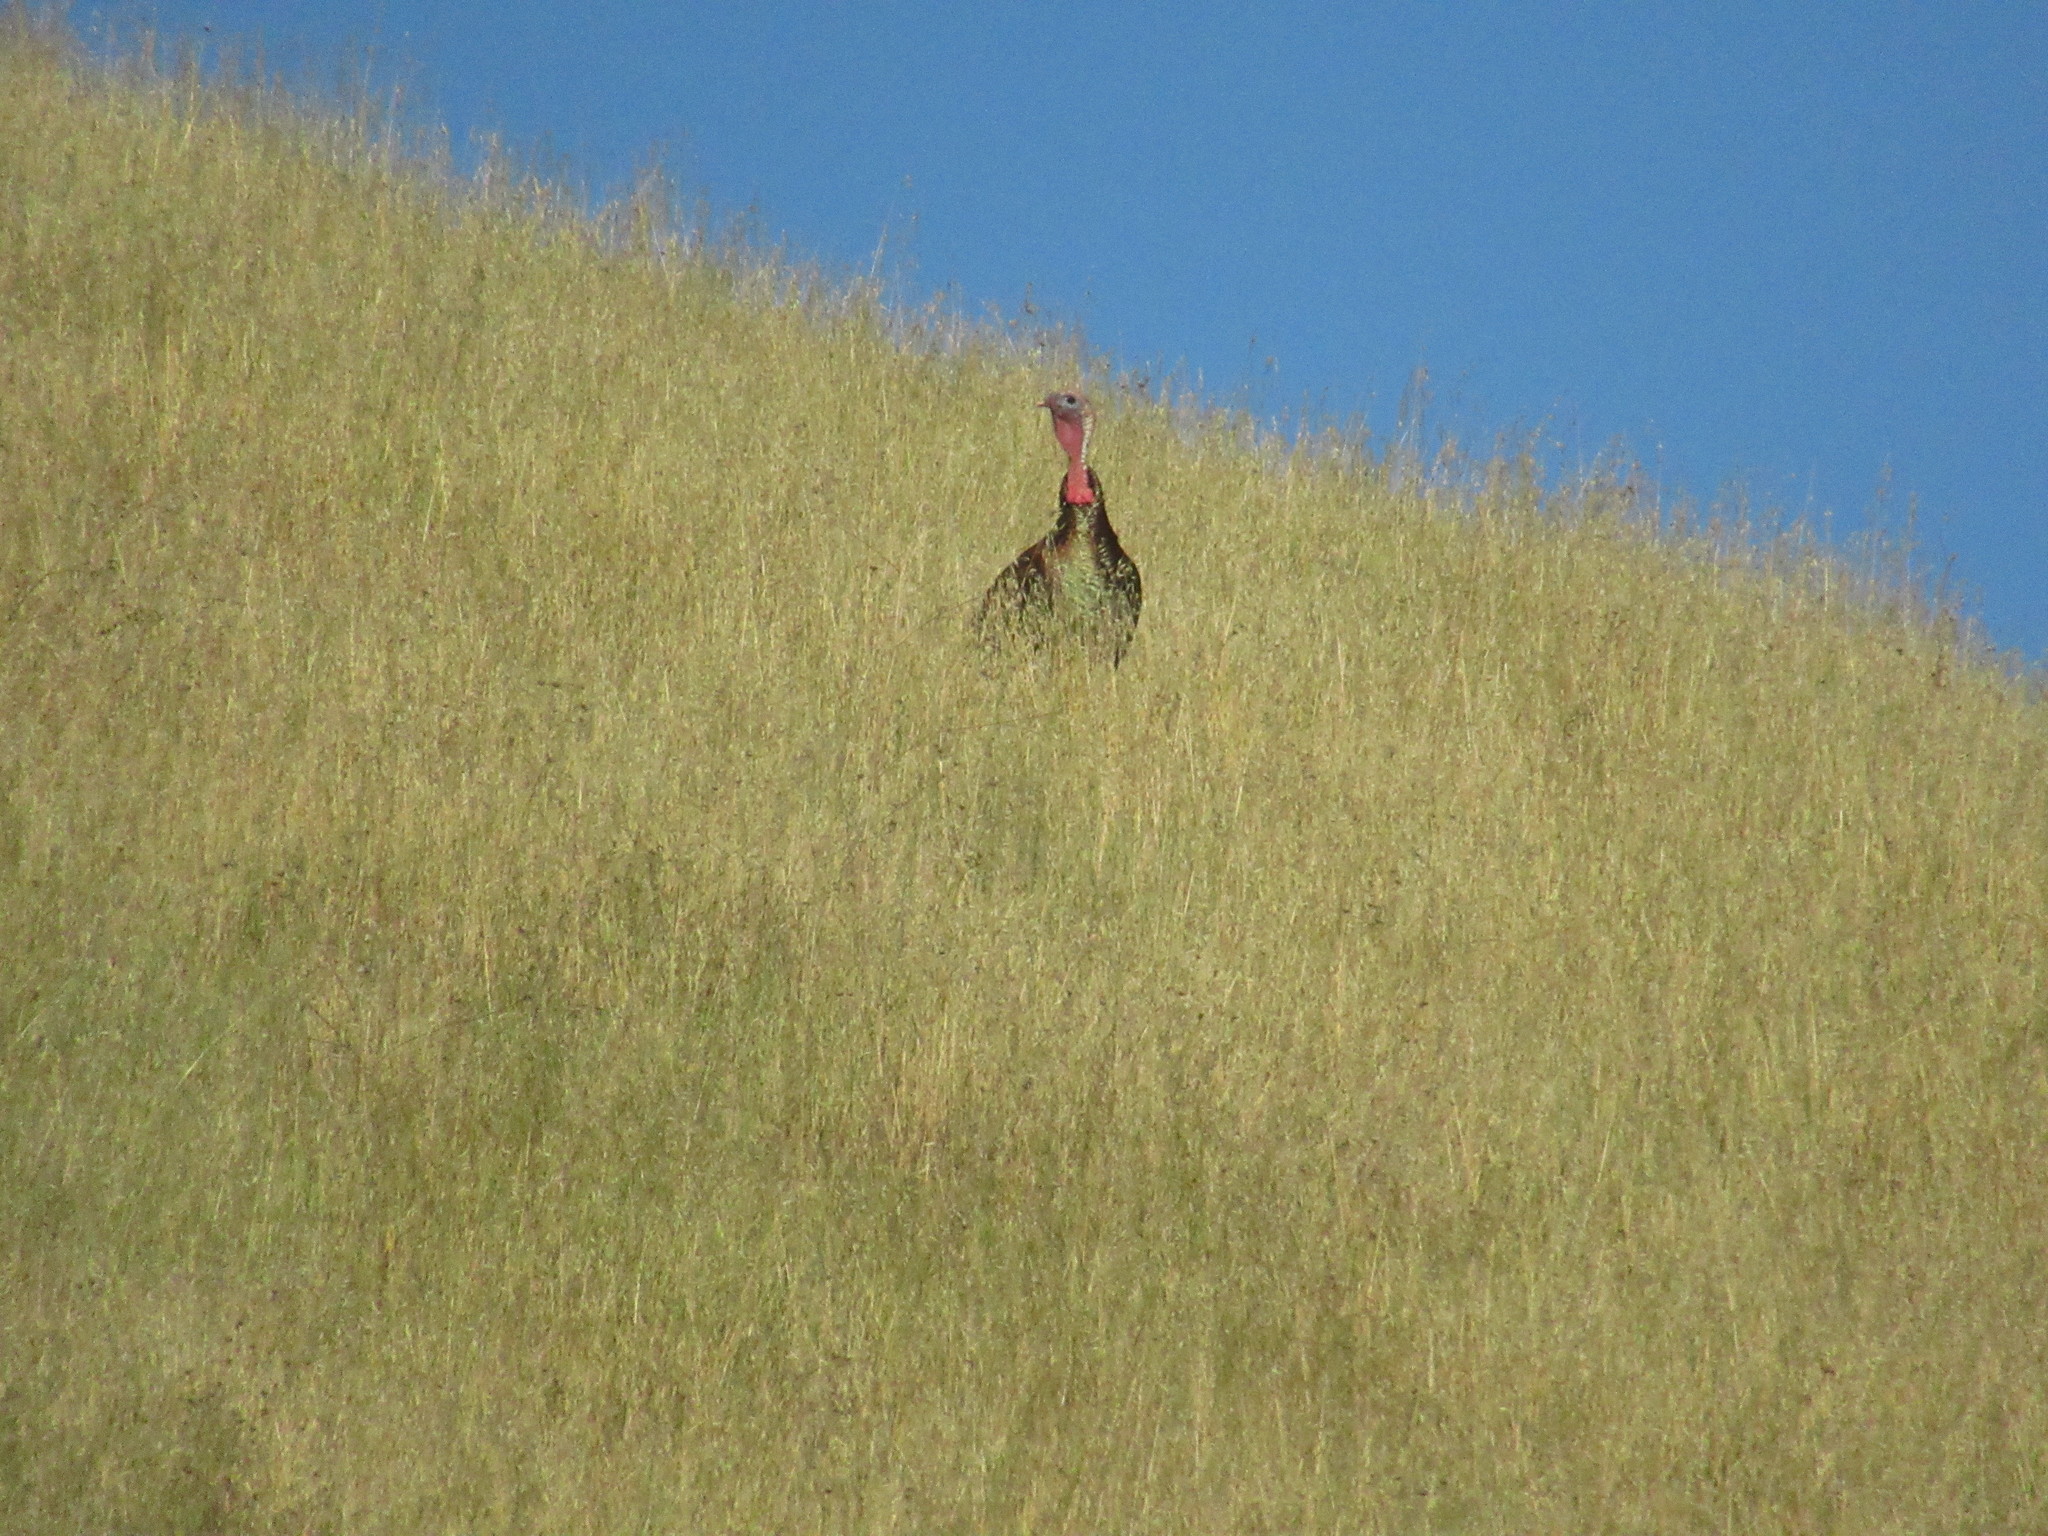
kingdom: Animalia
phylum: Chordata
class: Aves
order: Galliformes
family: Phasianidae
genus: Meleagris
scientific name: Meleagris gallopavo
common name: Wild turkey
